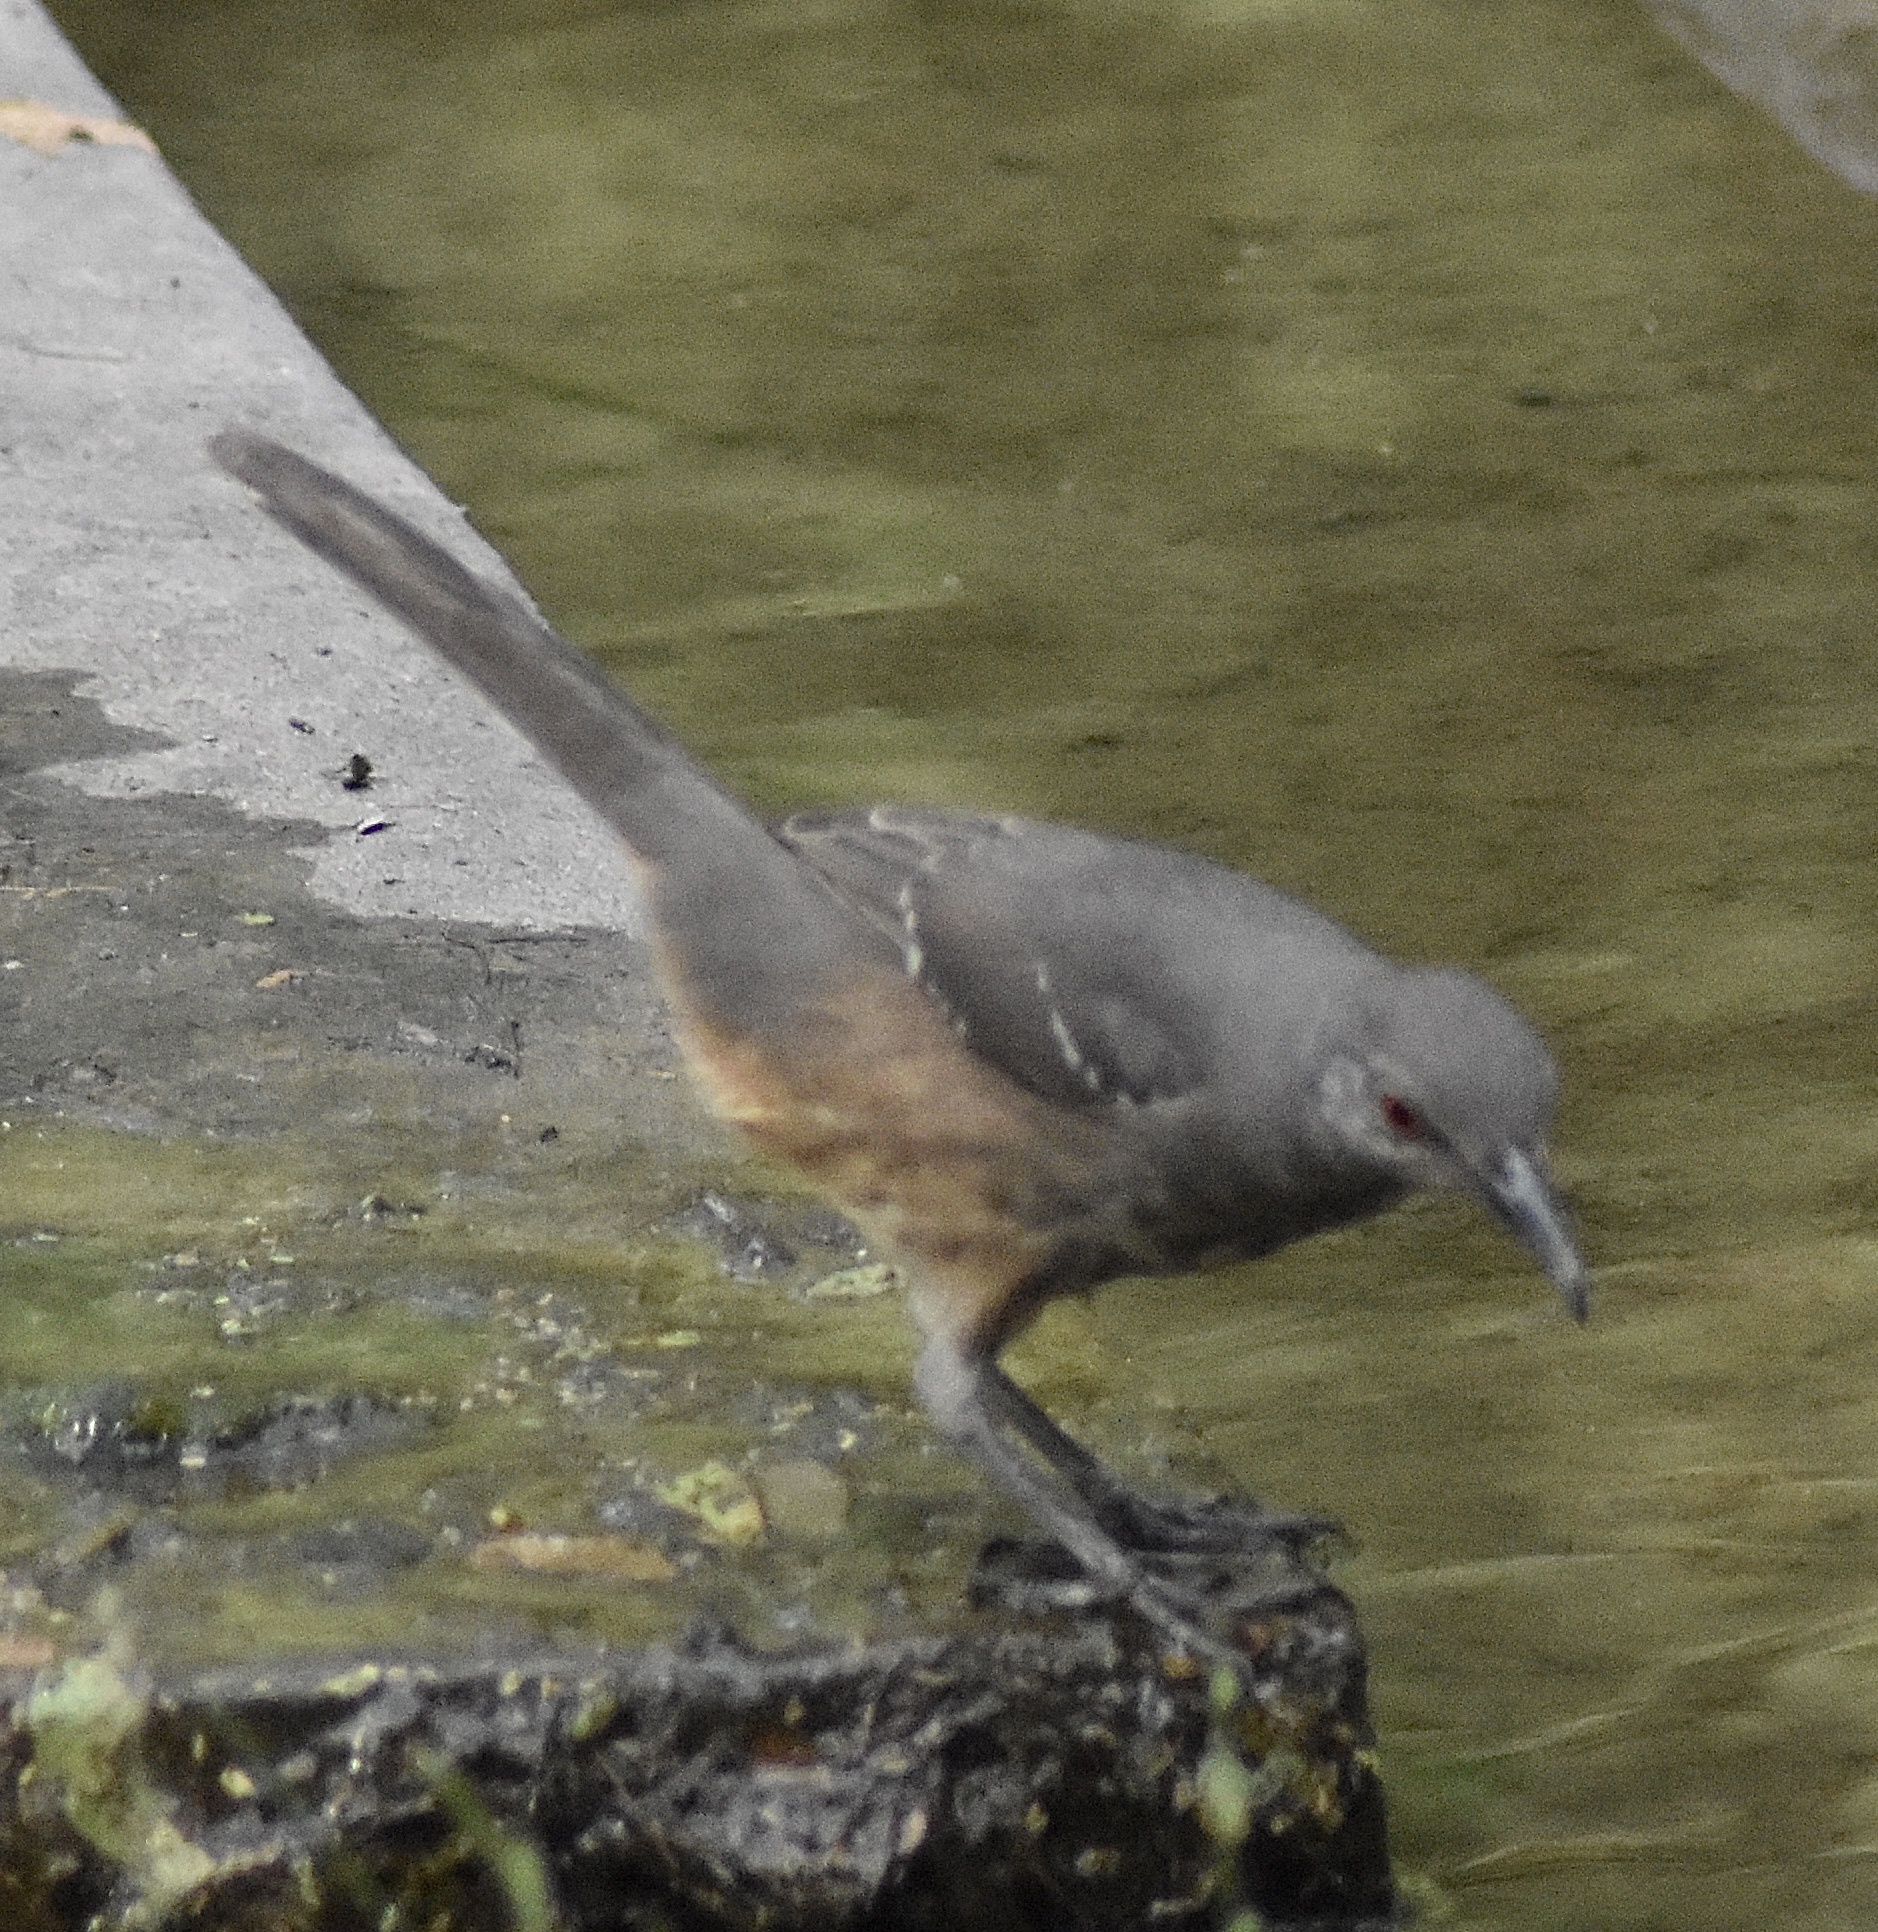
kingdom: Animalia
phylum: Chordata
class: Aves
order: Passeriformes
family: Mimidae
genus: Toxostoma
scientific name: Toxostoma curvirostre
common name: Curve-billed thrasher
